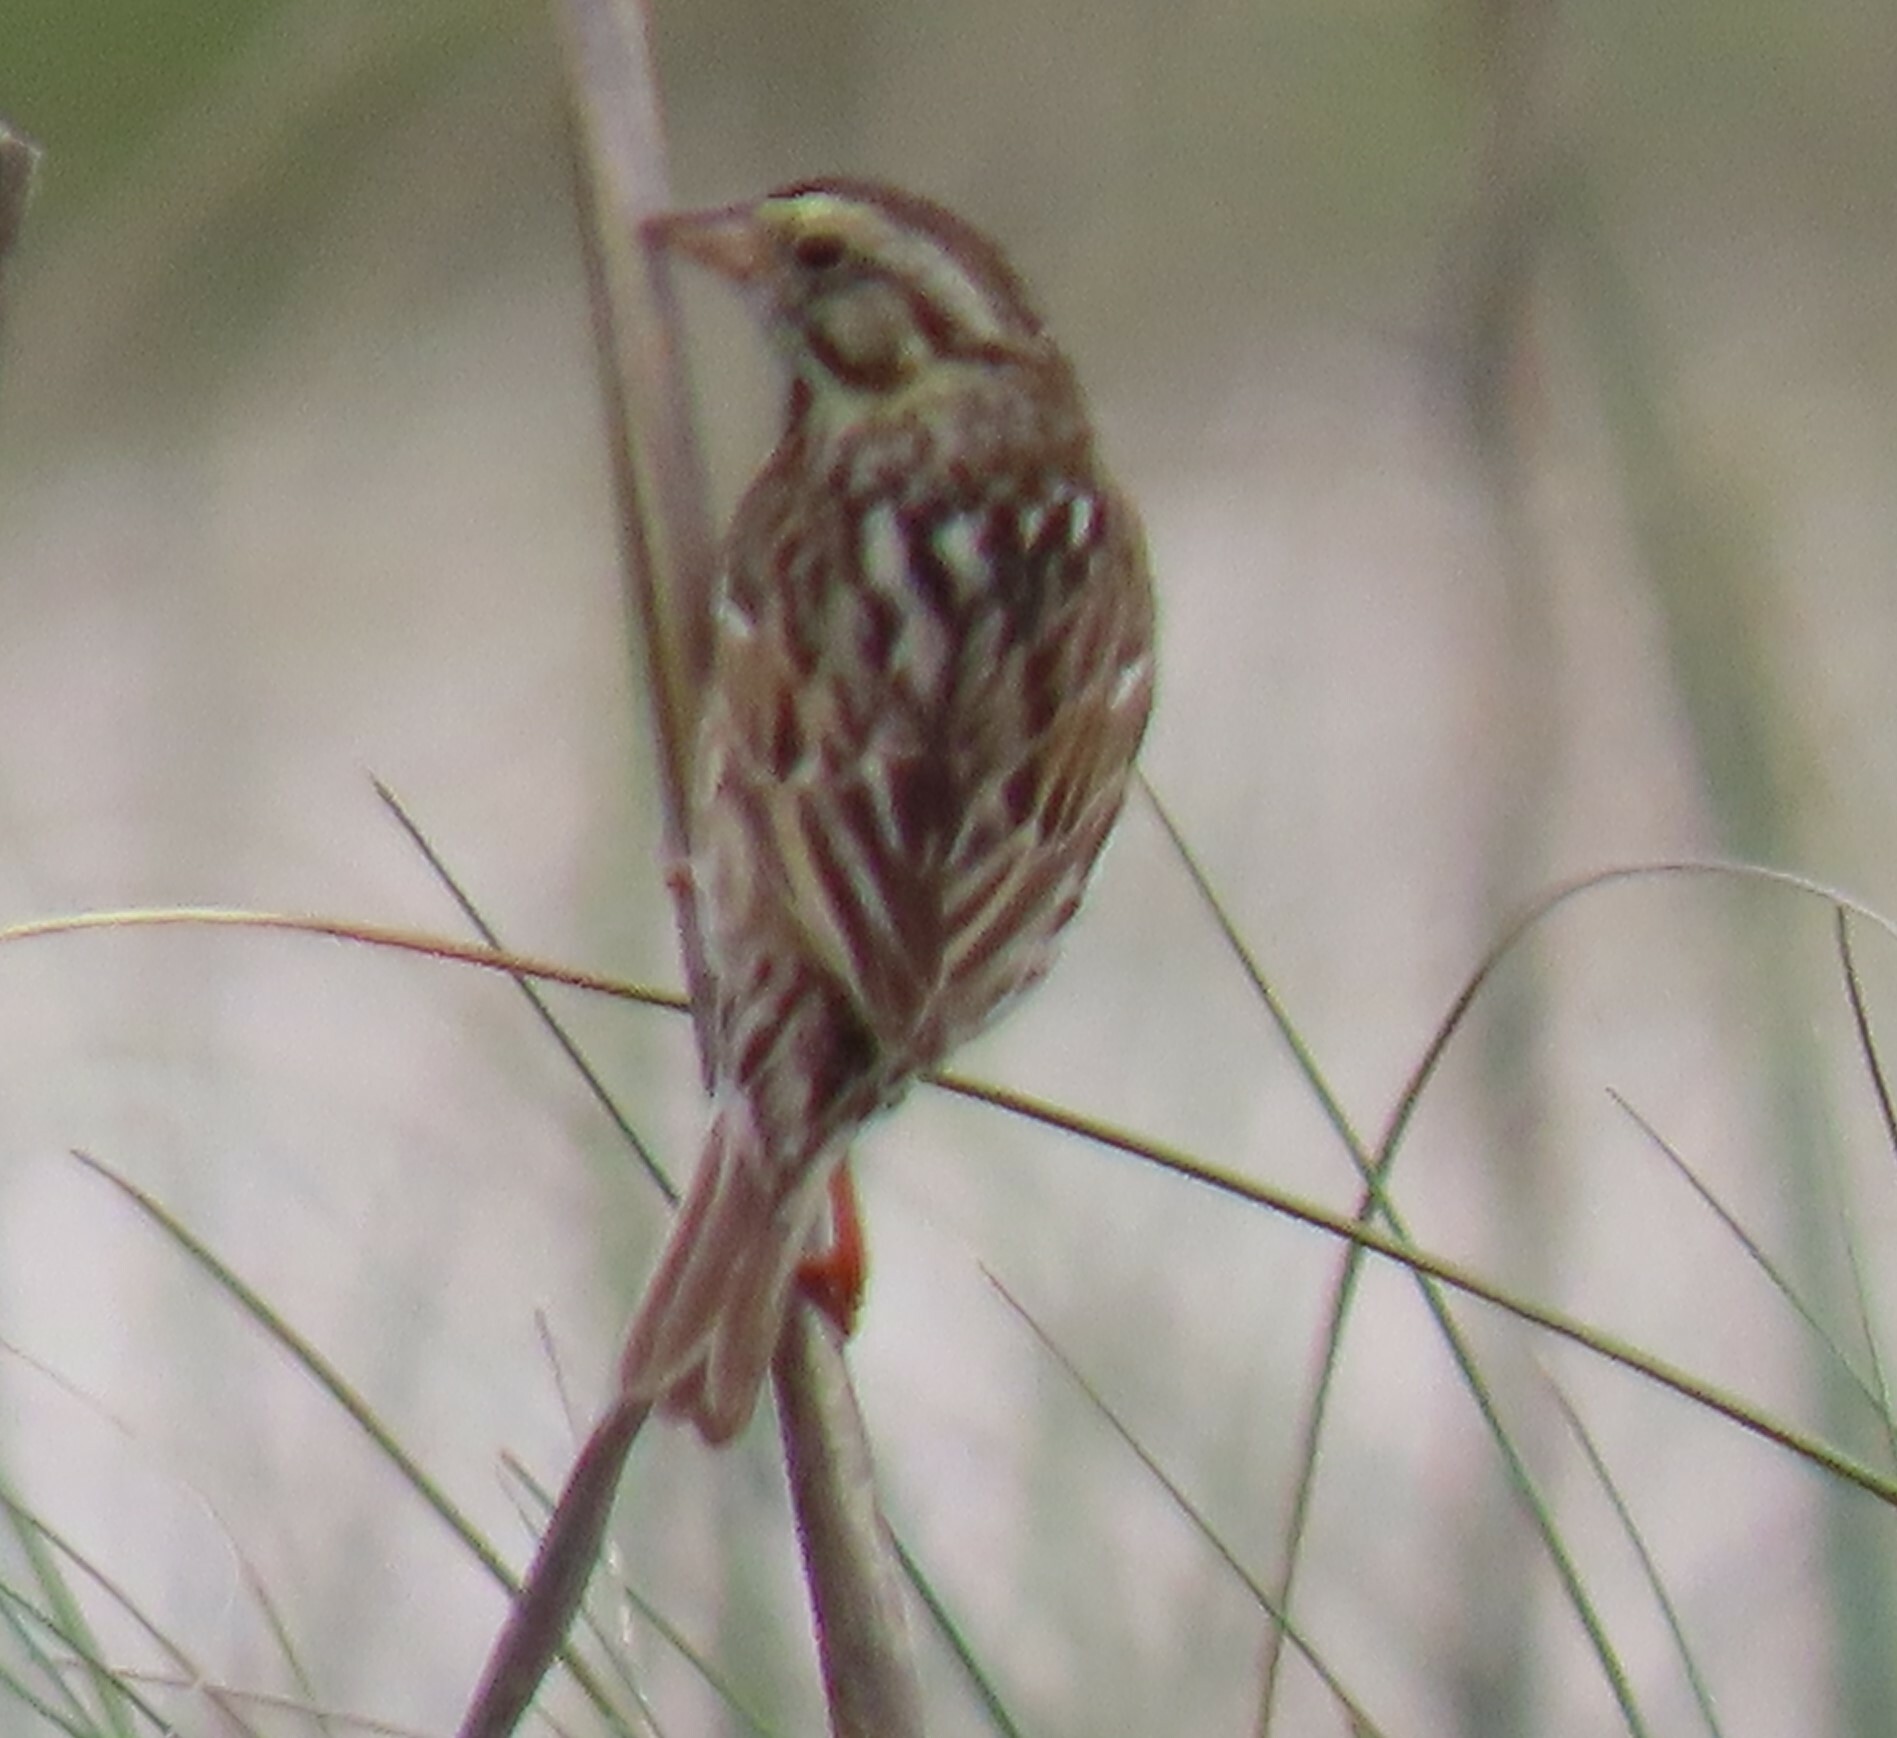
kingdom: Animalia
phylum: Chordata
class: Aves
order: Passeriformes
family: Passerellidae
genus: Passerculus
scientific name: Passerculus sandwichensis
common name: Savannah sparrow
